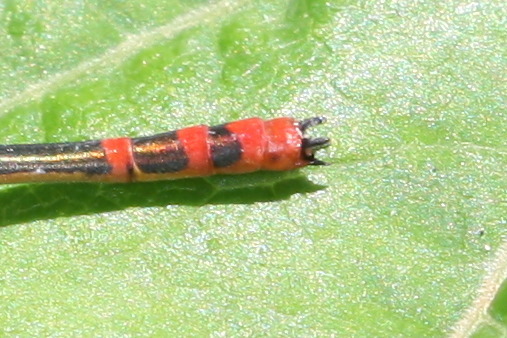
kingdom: Animalia
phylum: Arthropoda
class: Insecta
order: Odonata
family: Coenagrionidae
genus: Pyrrhosoma
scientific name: Pyrrhosoma elisabethae
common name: Greek red damsel
